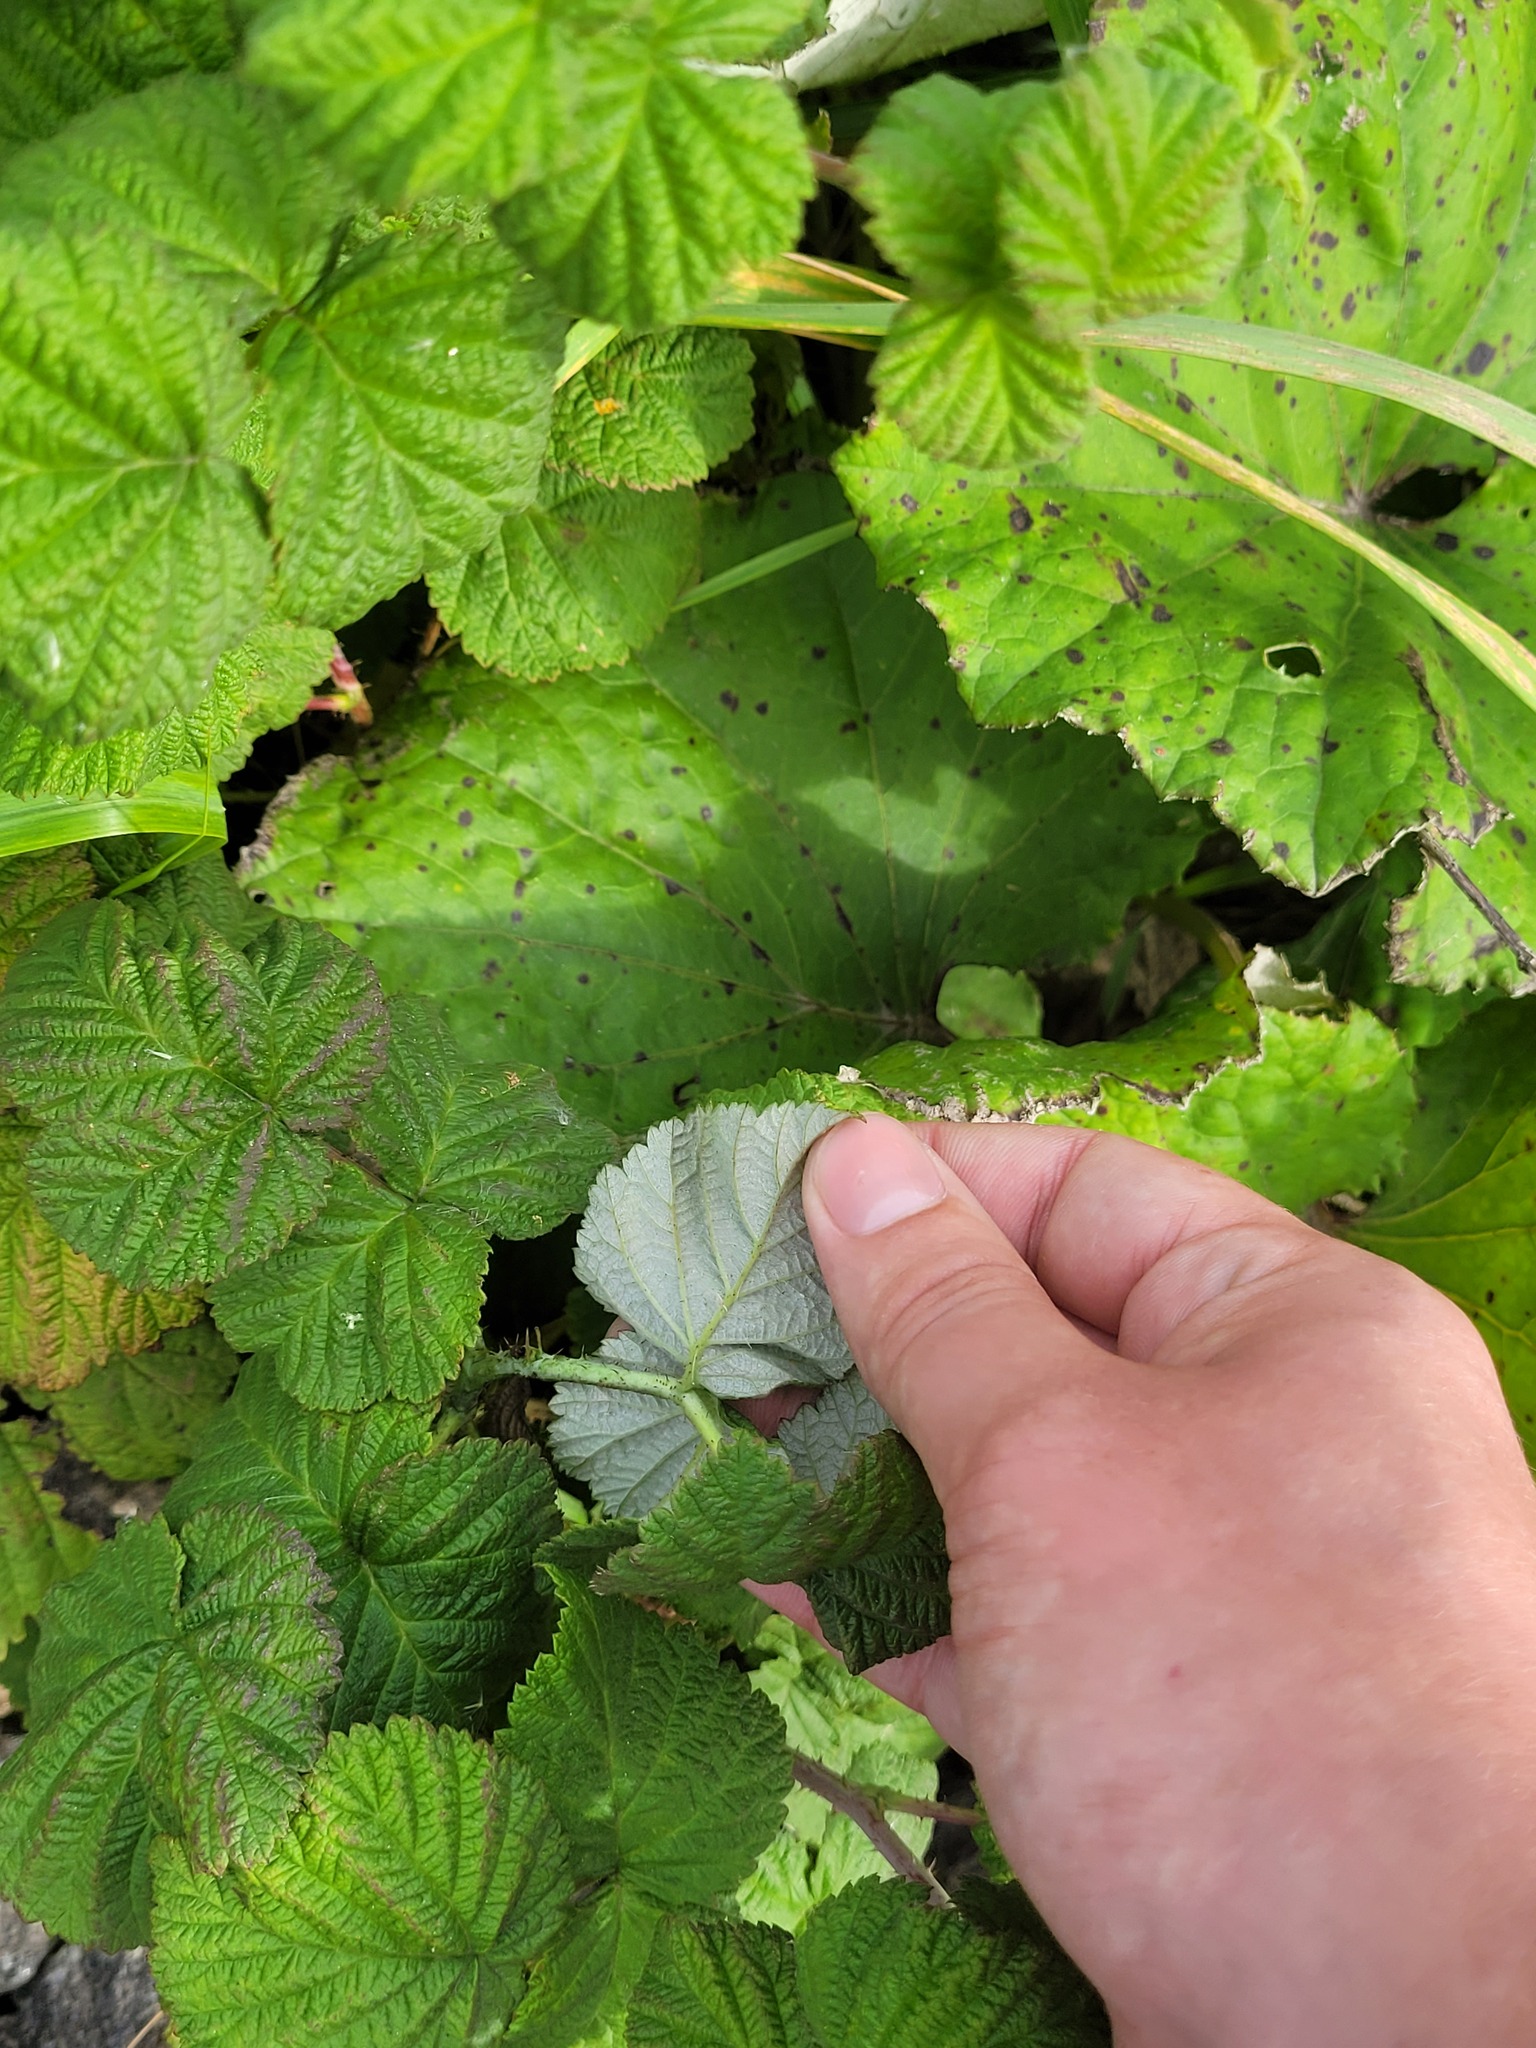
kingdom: Plantae
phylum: Tracheophyta
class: Magnoliopsida
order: Rosales
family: Rosaceae
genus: Rubus
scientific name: Rubus idaeus
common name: Raspberry
